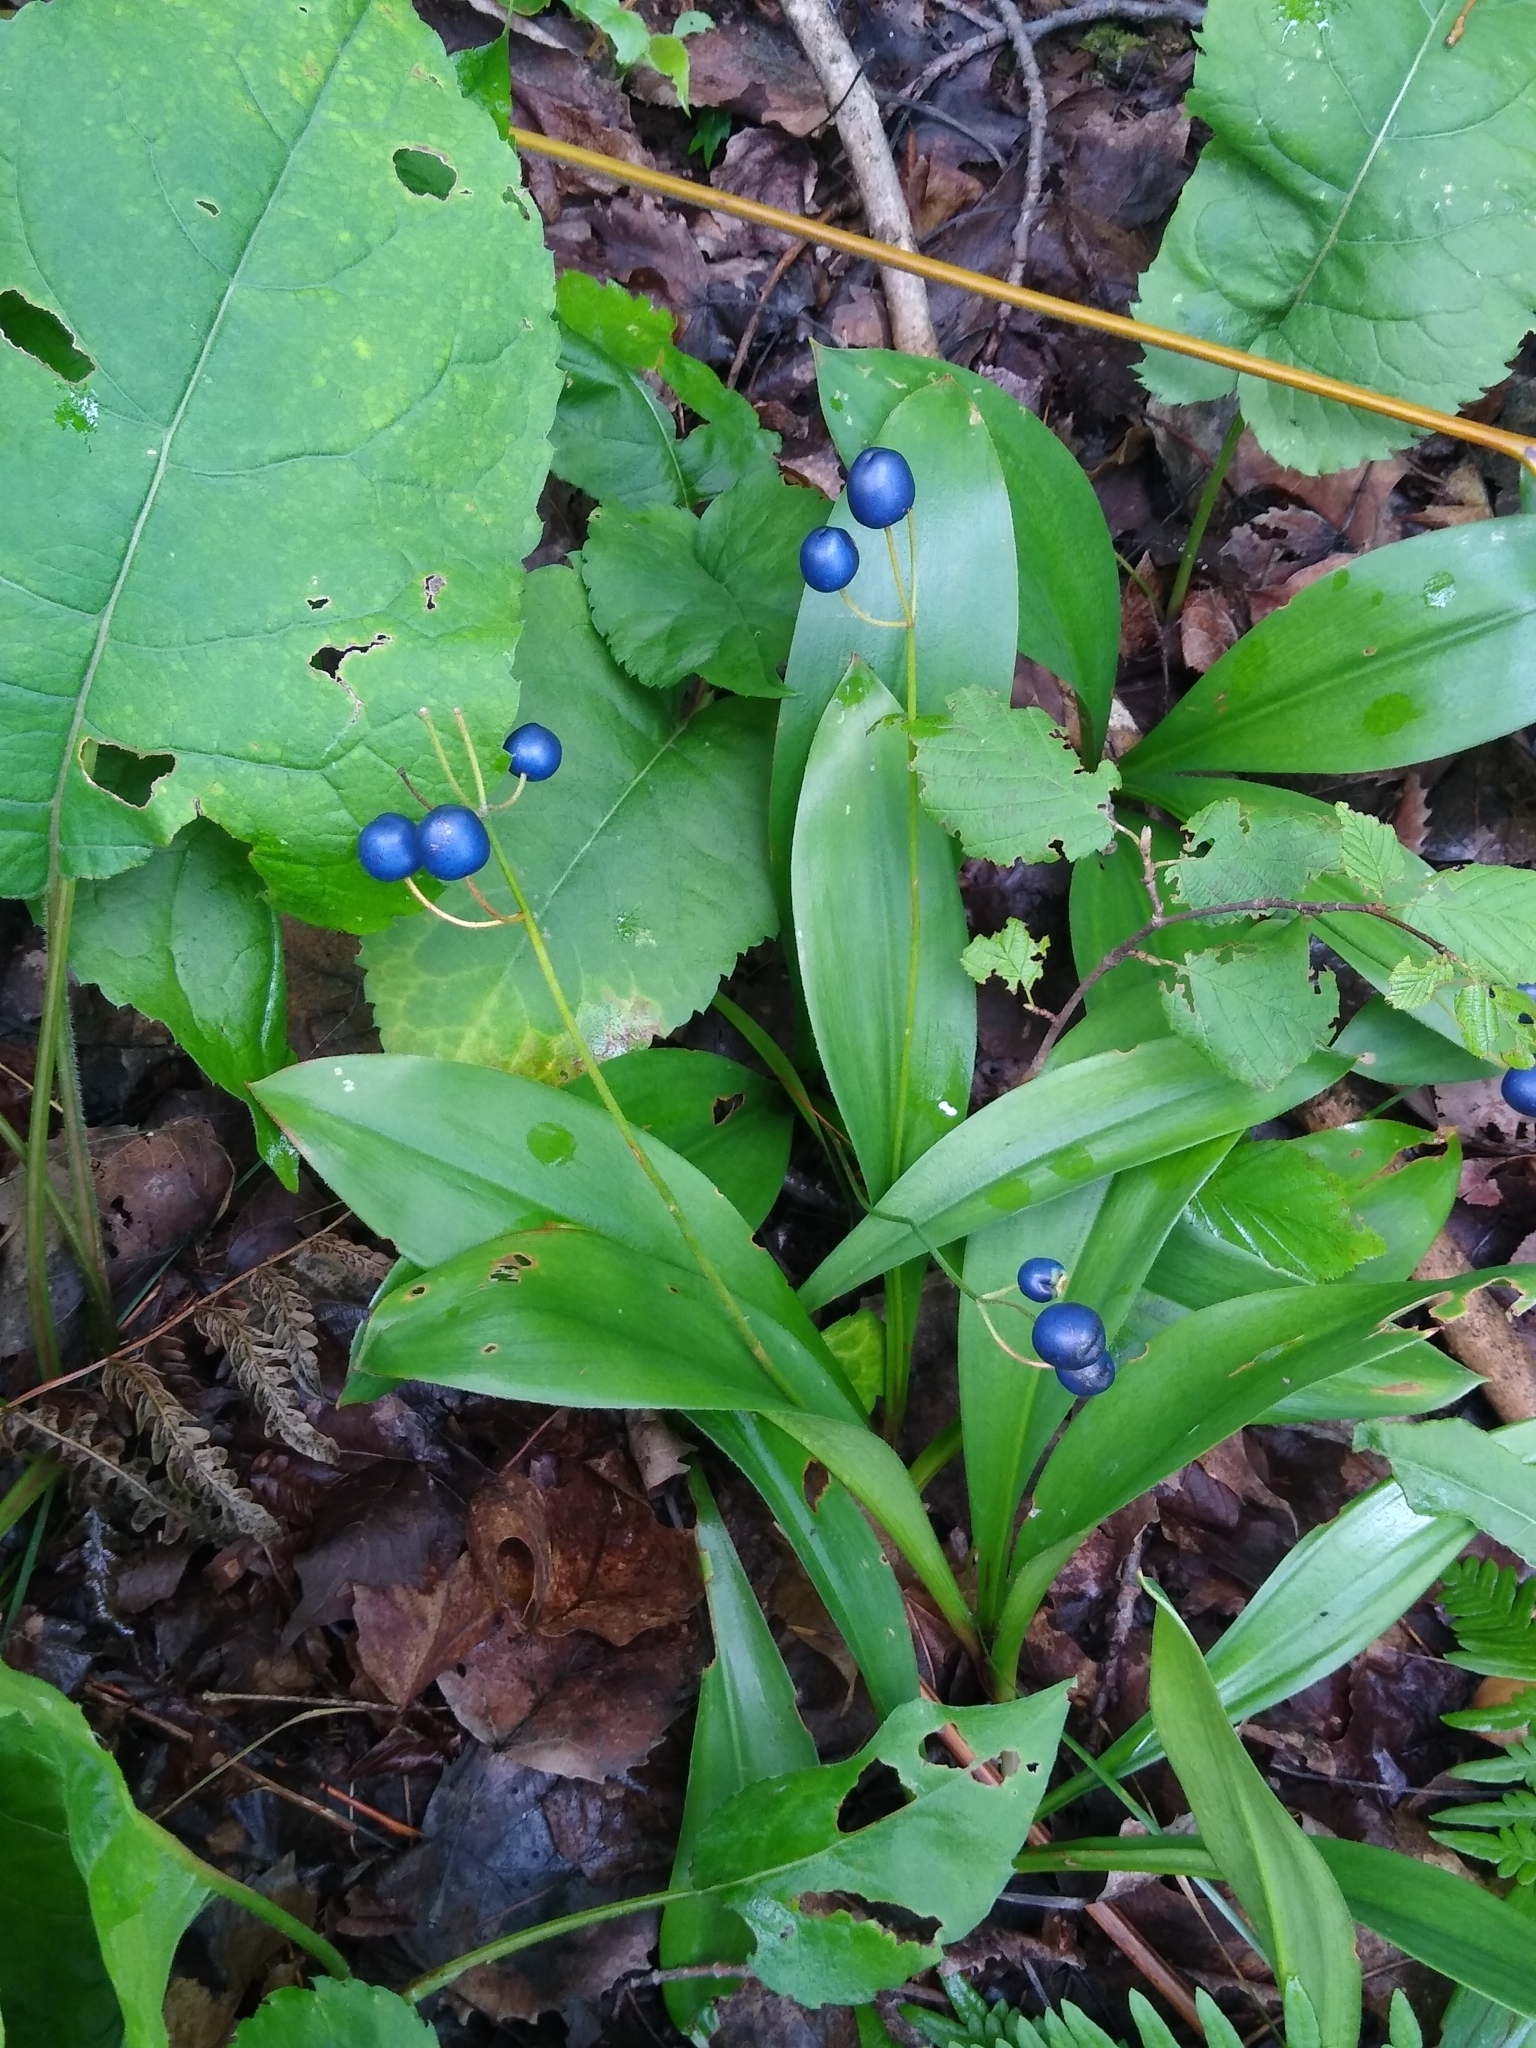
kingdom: Plantae
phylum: Tracheophyta
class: Liliopsida
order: Liliales
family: Liliaceae
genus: Clintonia
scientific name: Clintonia borealis
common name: Yellow clintonia
